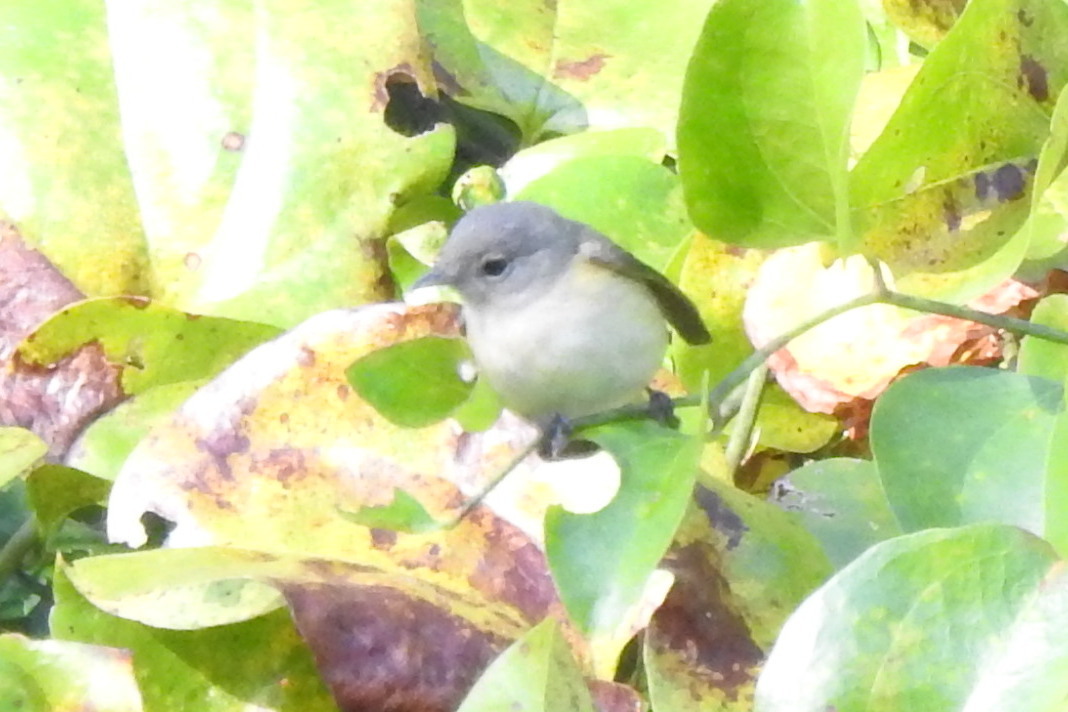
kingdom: Animalia
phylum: Chordata
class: Aves
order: Passeriformes
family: Parulidae
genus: Setophaga
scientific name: Setophaga ruticilla
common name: American redstart
